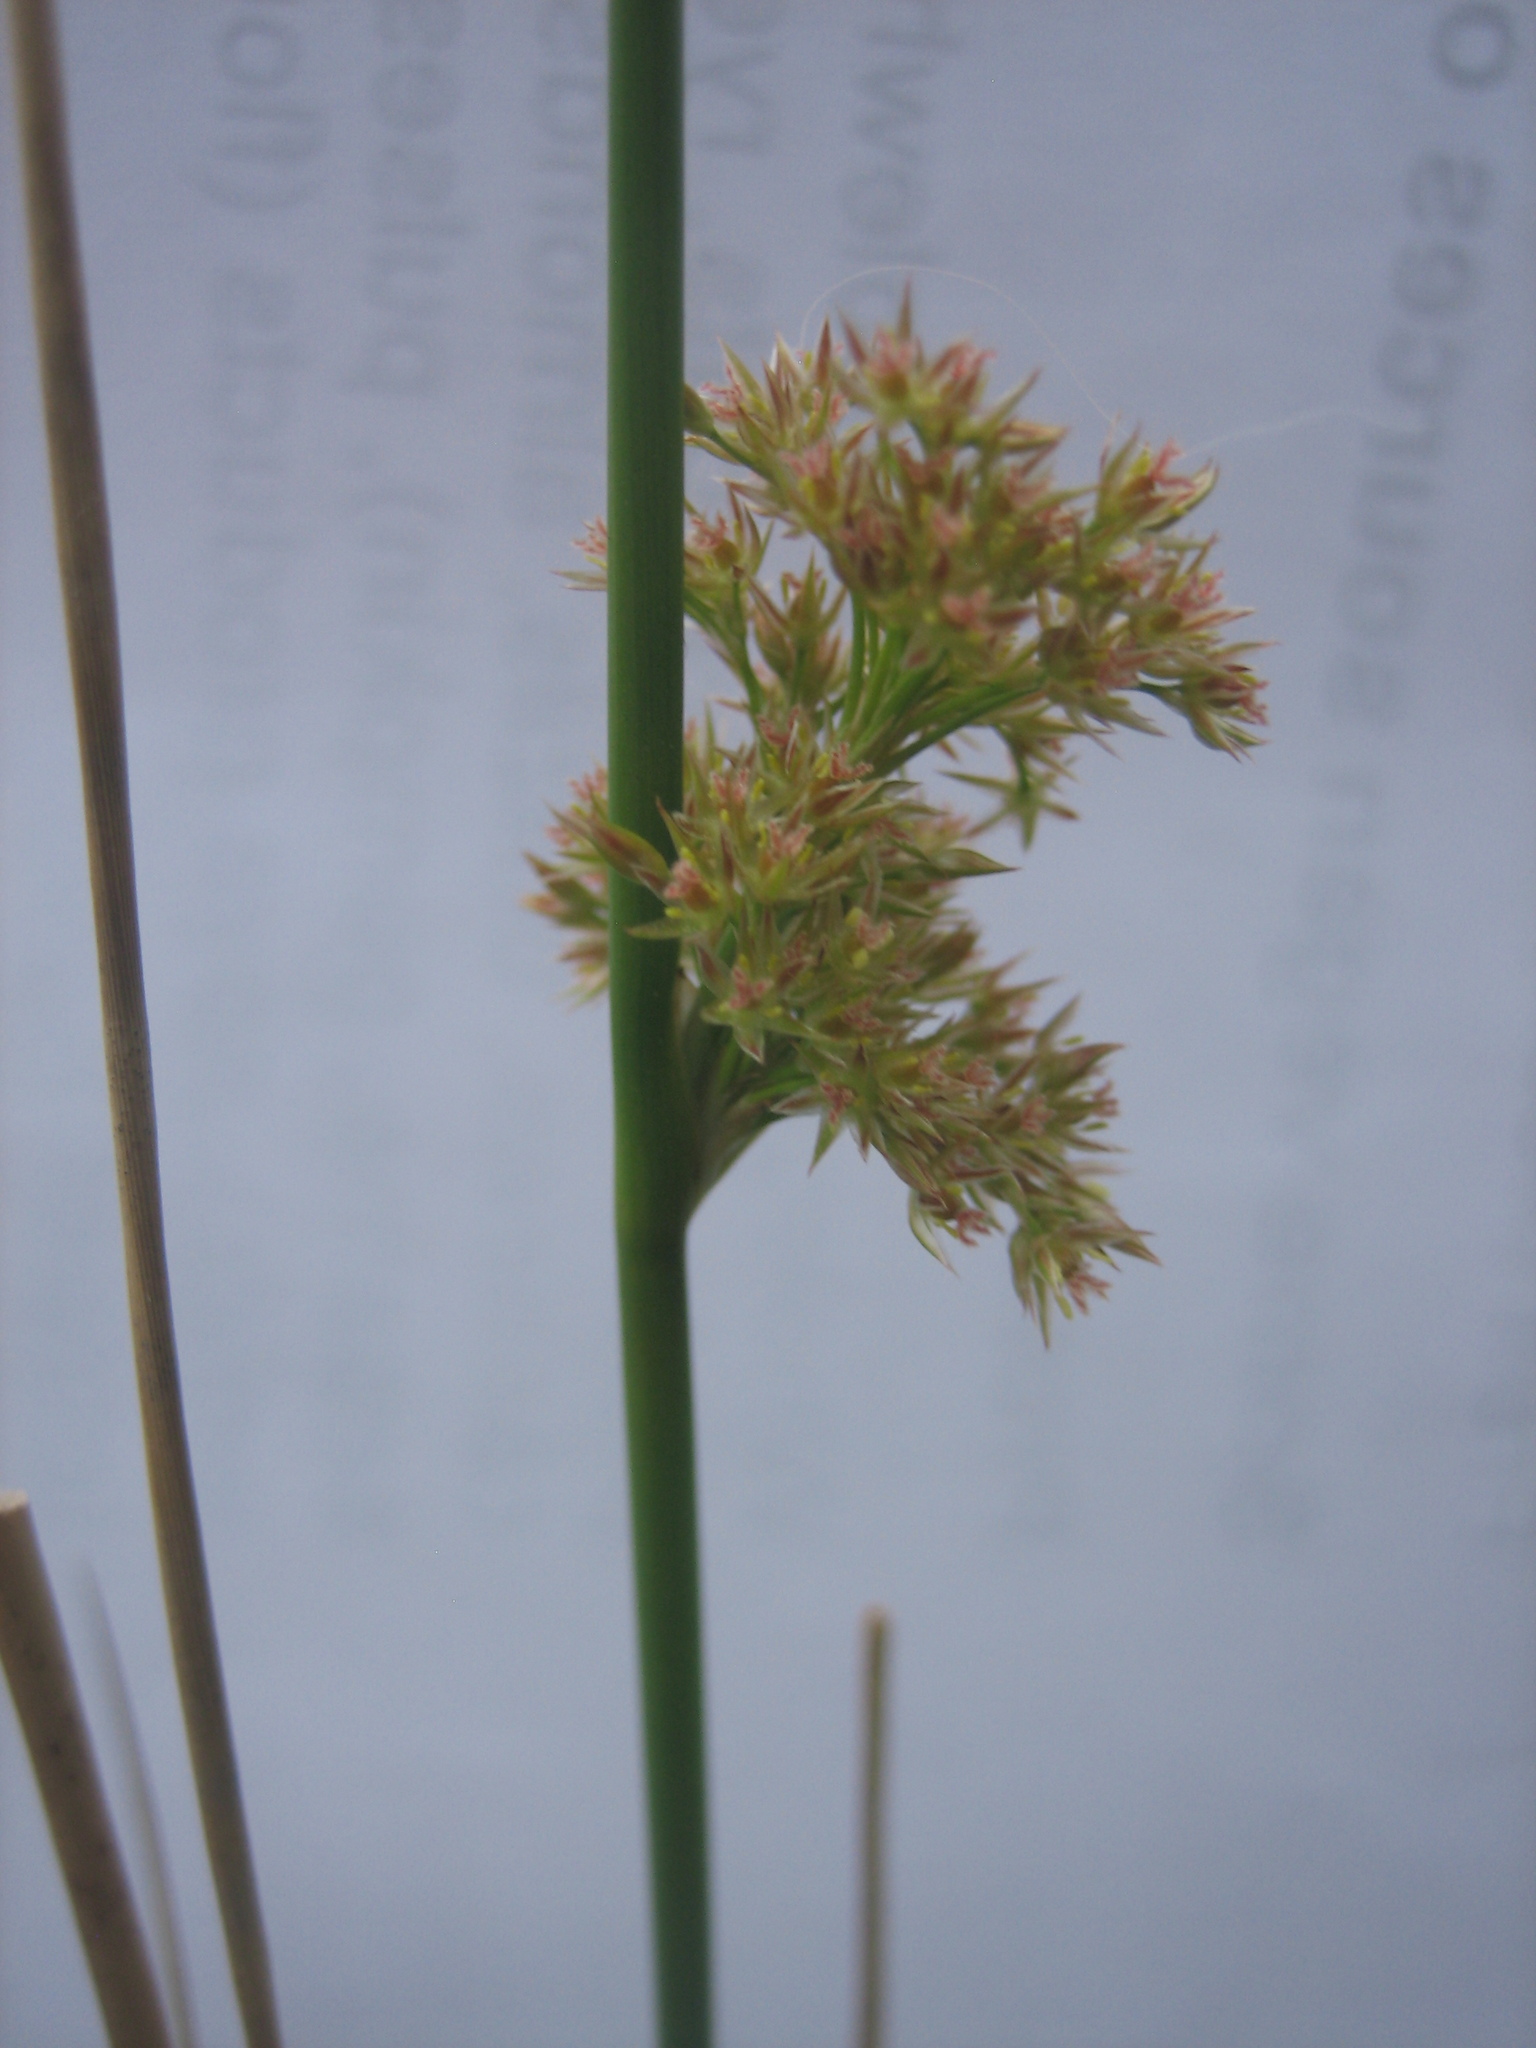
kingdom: Plantae
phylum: Tracheophyta
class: Liliopsida
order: Poales
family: Juncaceae
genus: Juncus
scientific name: Juncus effusus
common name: Soft rush
